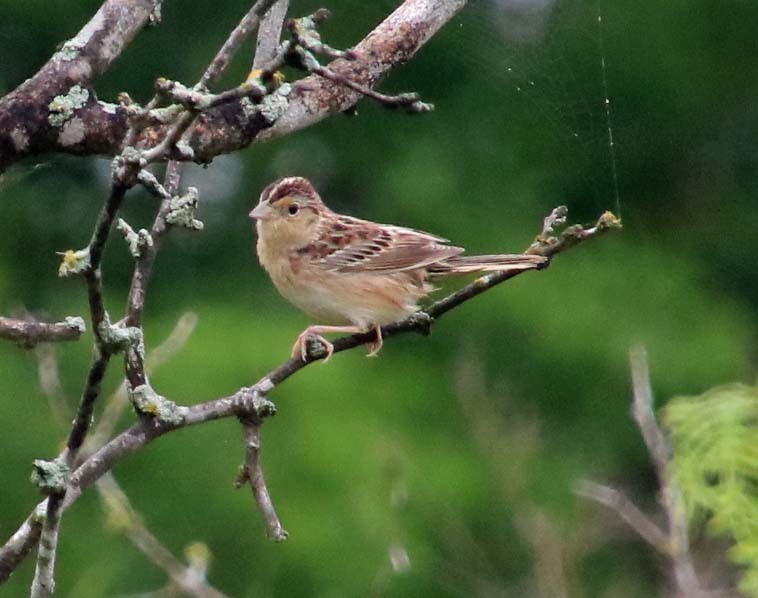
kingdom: Animalia
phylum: Chordata
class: Aves
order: Passeriformes
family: Passerellidae
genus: Ammodramus
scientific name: Ammodramus savannarum
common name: Grasshopper sparrow
